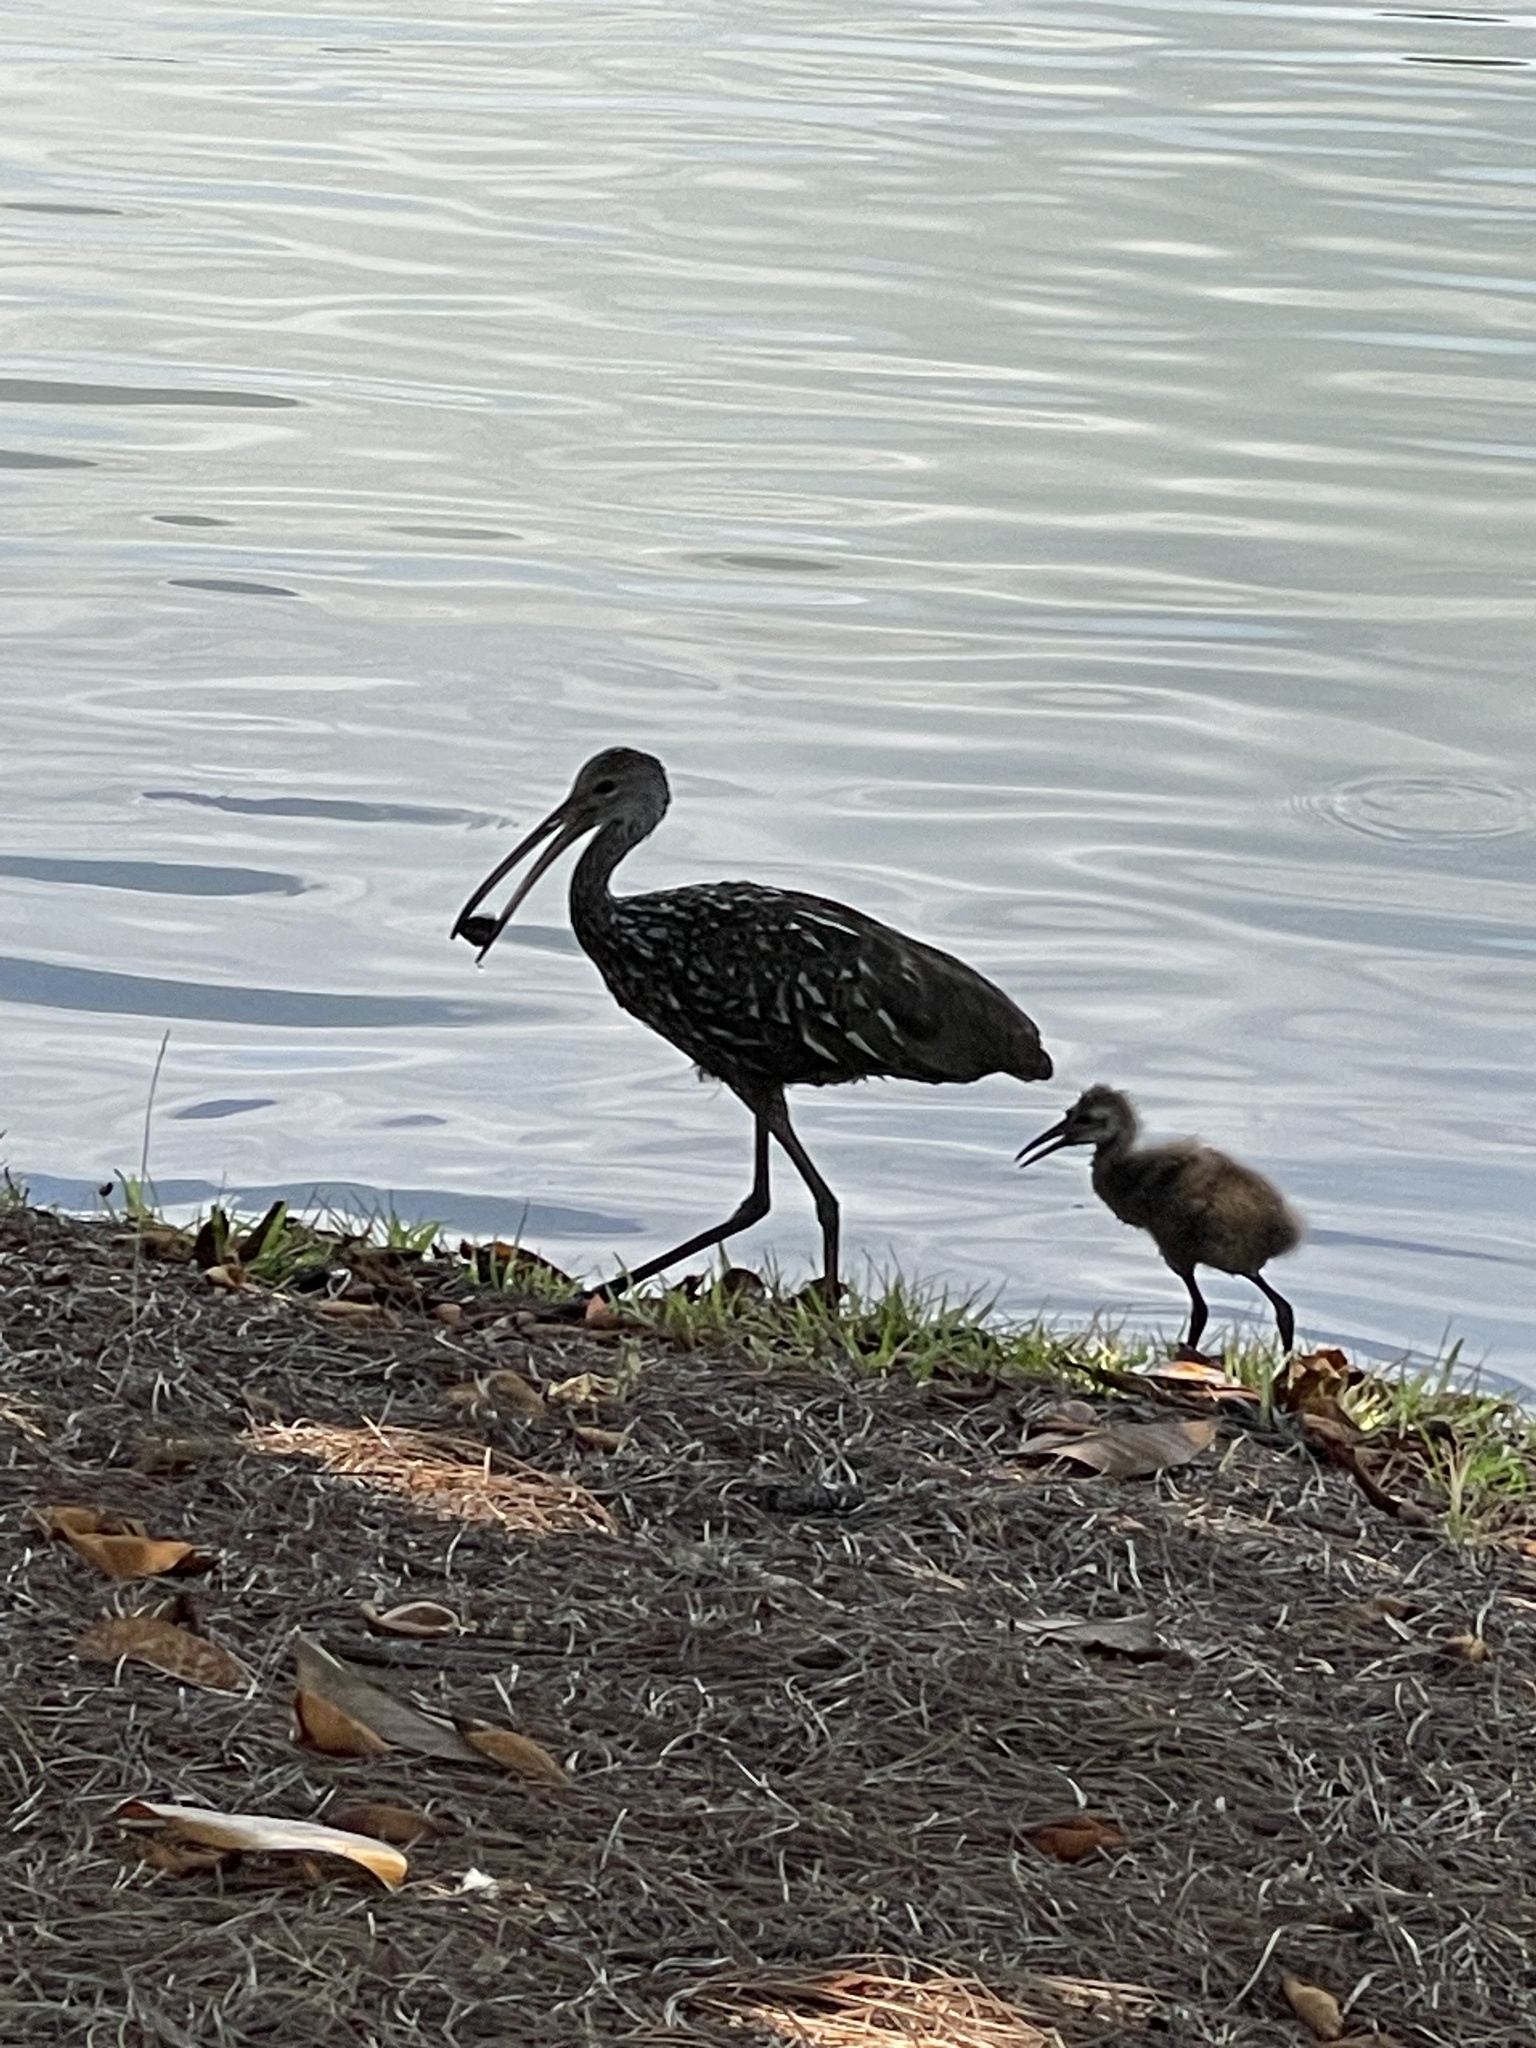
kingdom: Animalia
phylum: Chordata
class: Aves
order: Gruiformes
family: Aramidae
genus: Aramus
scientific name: Aramus guarauna
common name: Limpkin
